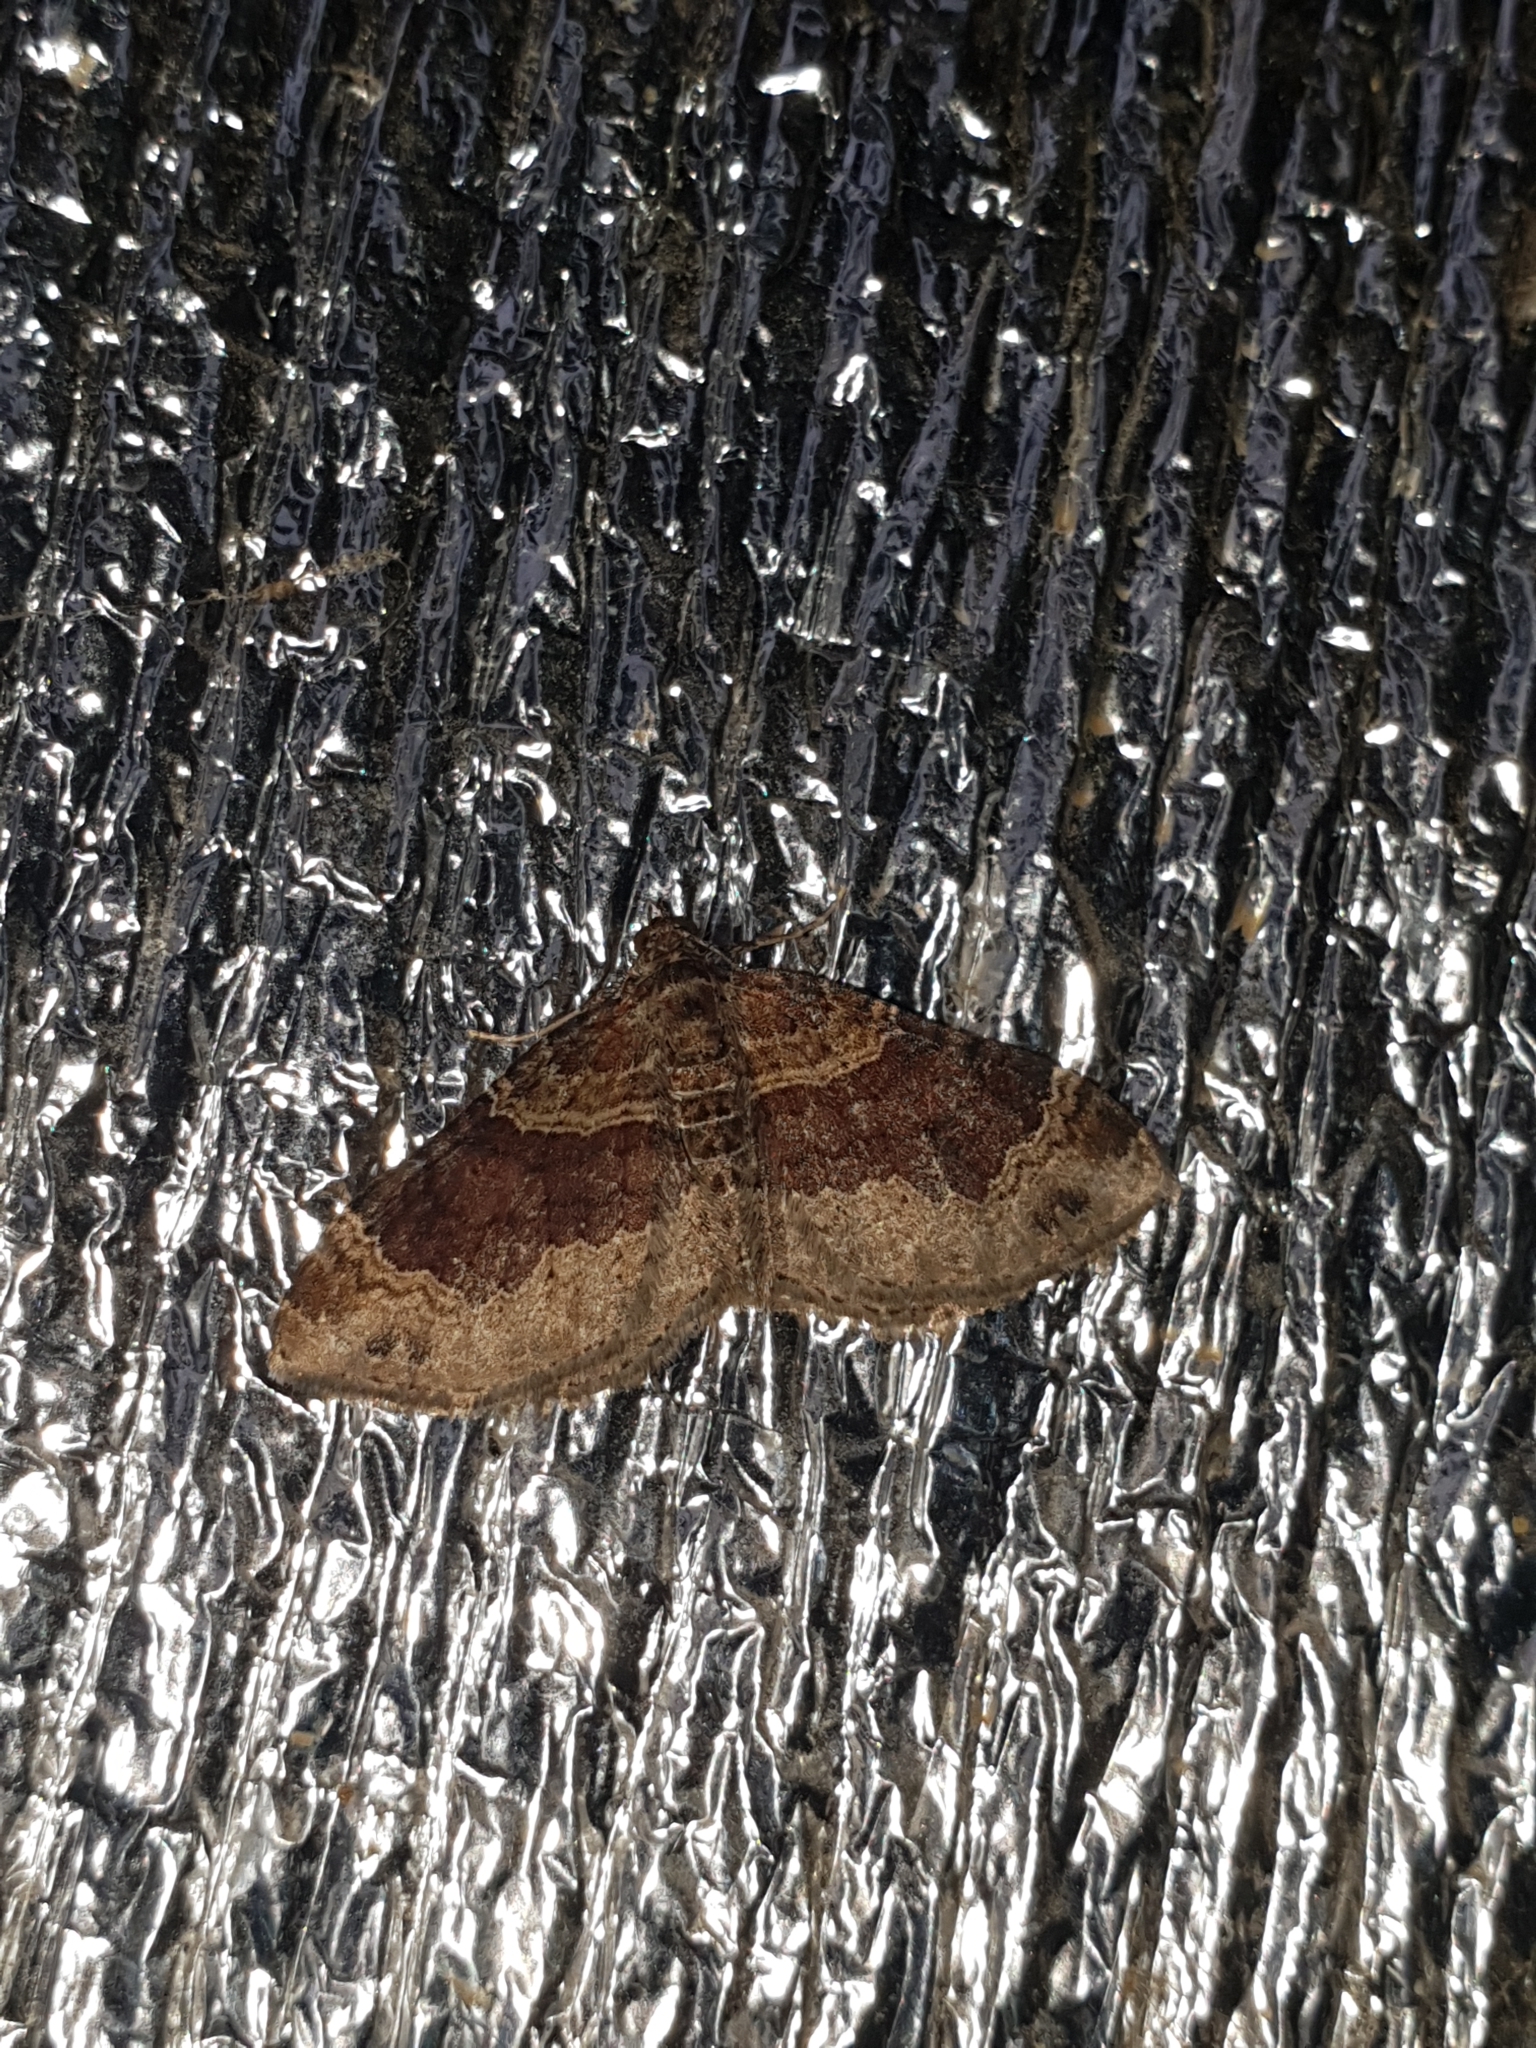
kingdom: Animalia
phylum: Arthropoda
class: Insecta
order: Lepidoptera
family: Geometridae
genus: Xanthorhoe
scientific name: Xanthorhoe ferrugata
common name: Dark-barred twin-spot carpet
